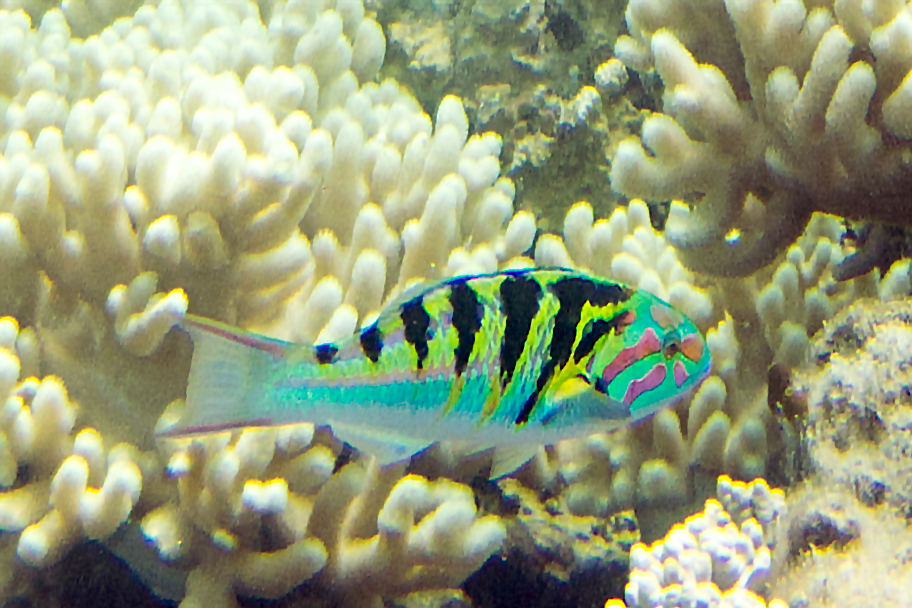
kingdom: Animalia
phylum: Chordata
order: Perciformes
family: Labridae
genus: Thalassoma
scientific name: Thalassoma hardwicke
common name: Sixbar wrasse
